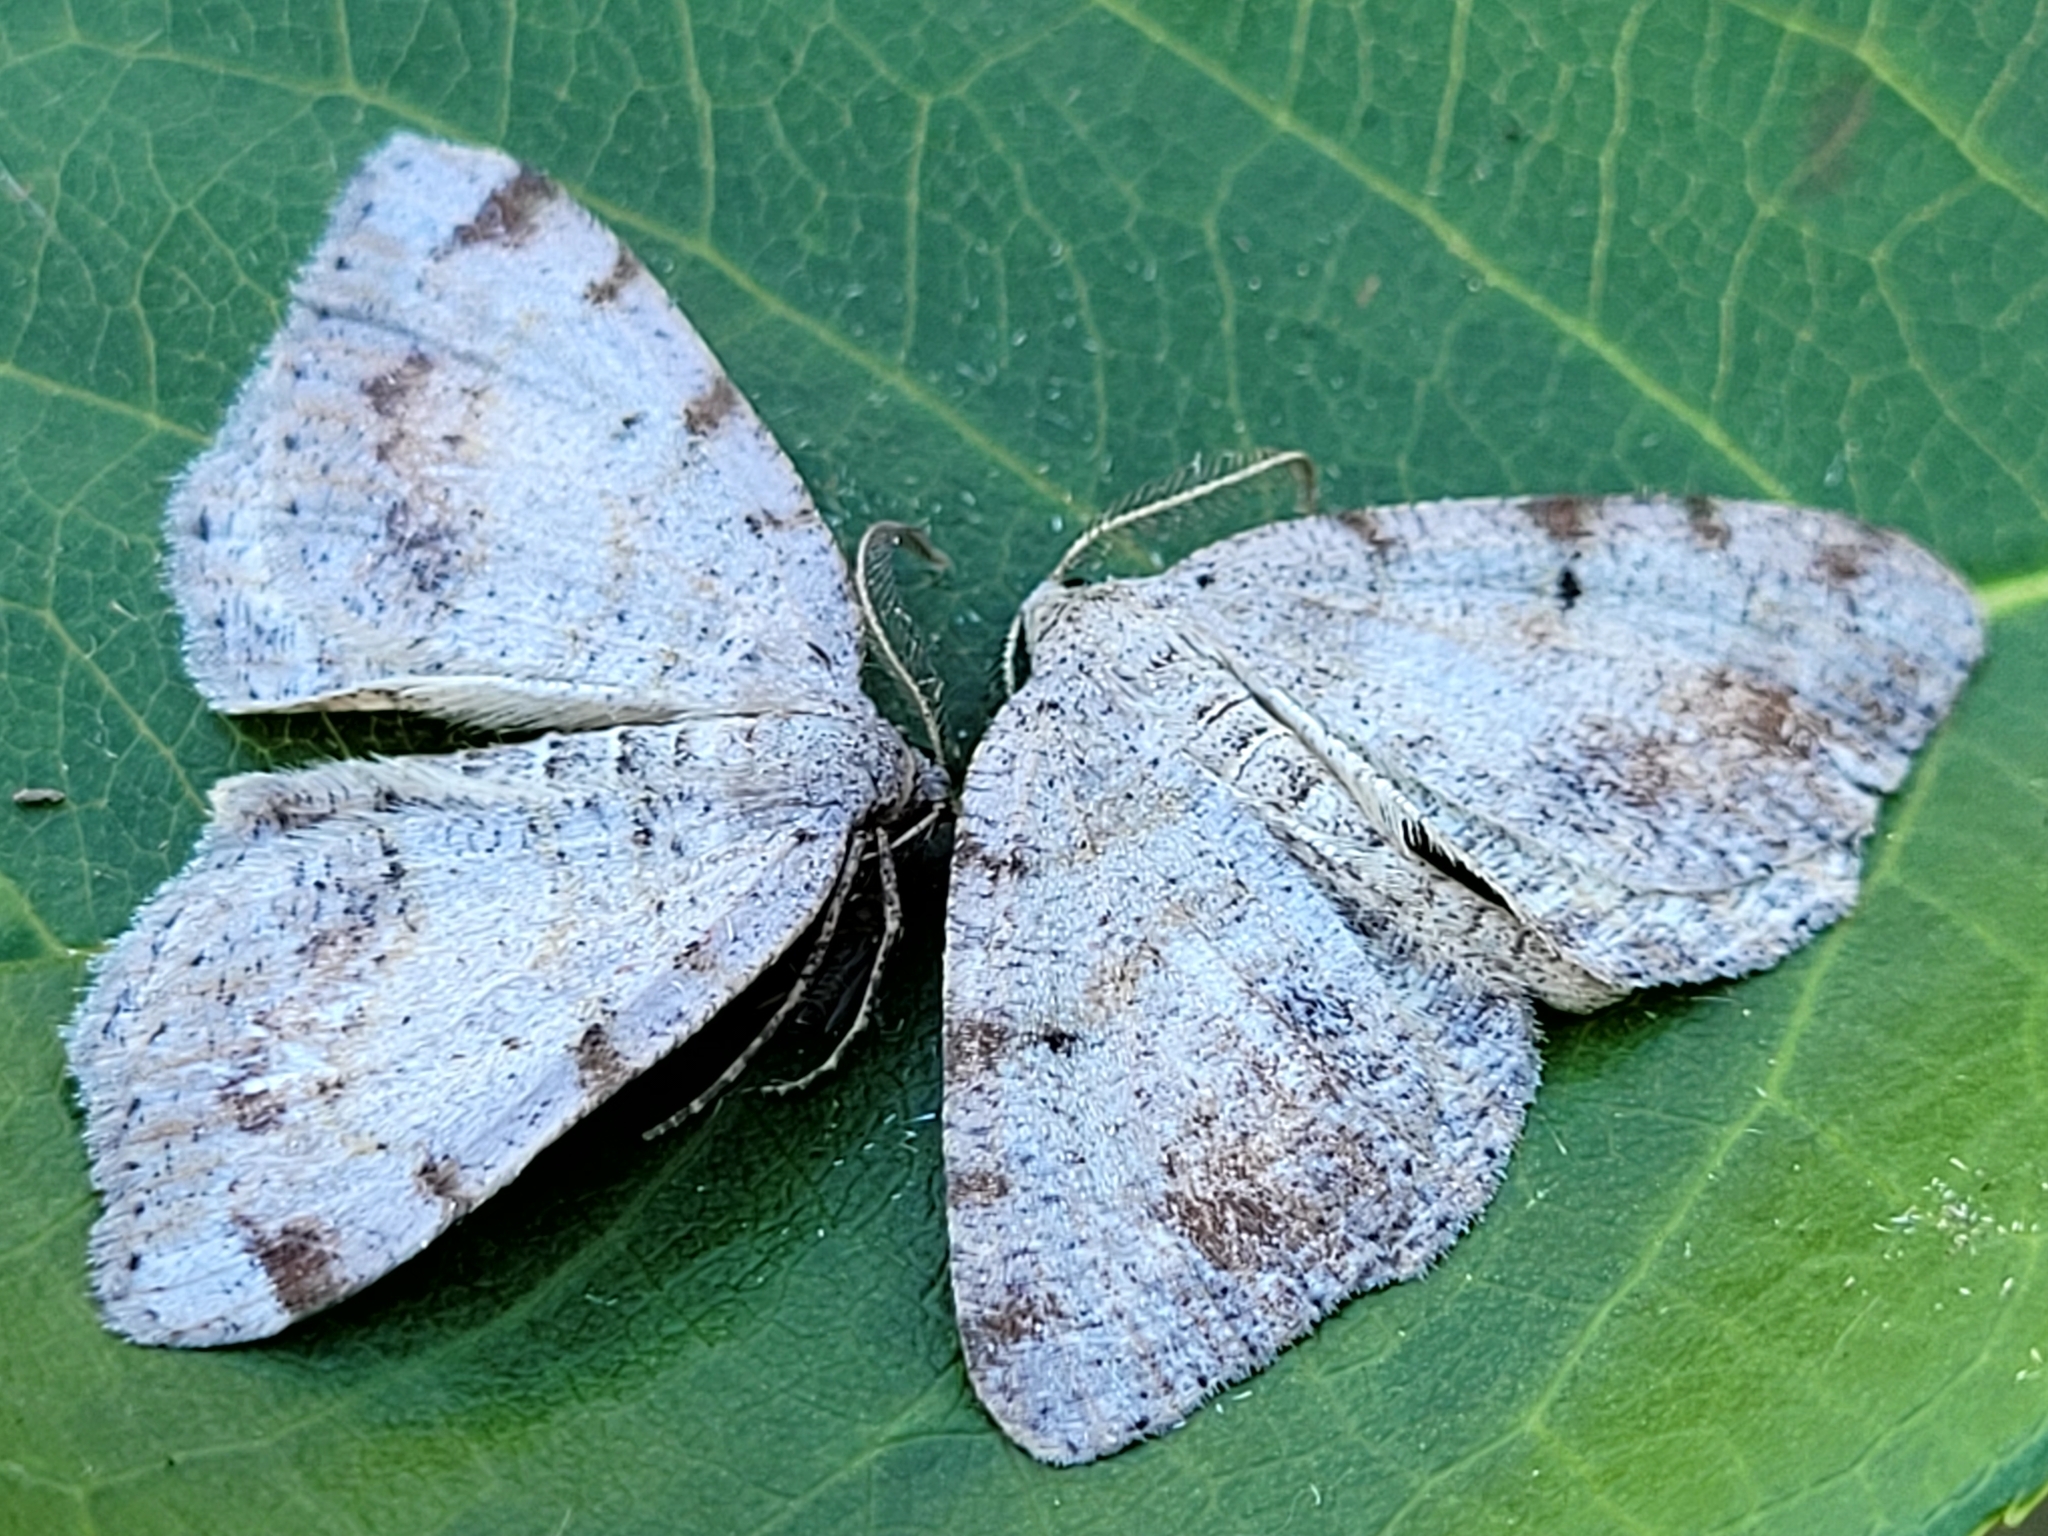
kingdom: Animalia
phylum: Arthropoda
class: Insecta
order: Lepidoptera
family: Geometridae
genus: Macaria
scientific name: Macaria exauspicata
